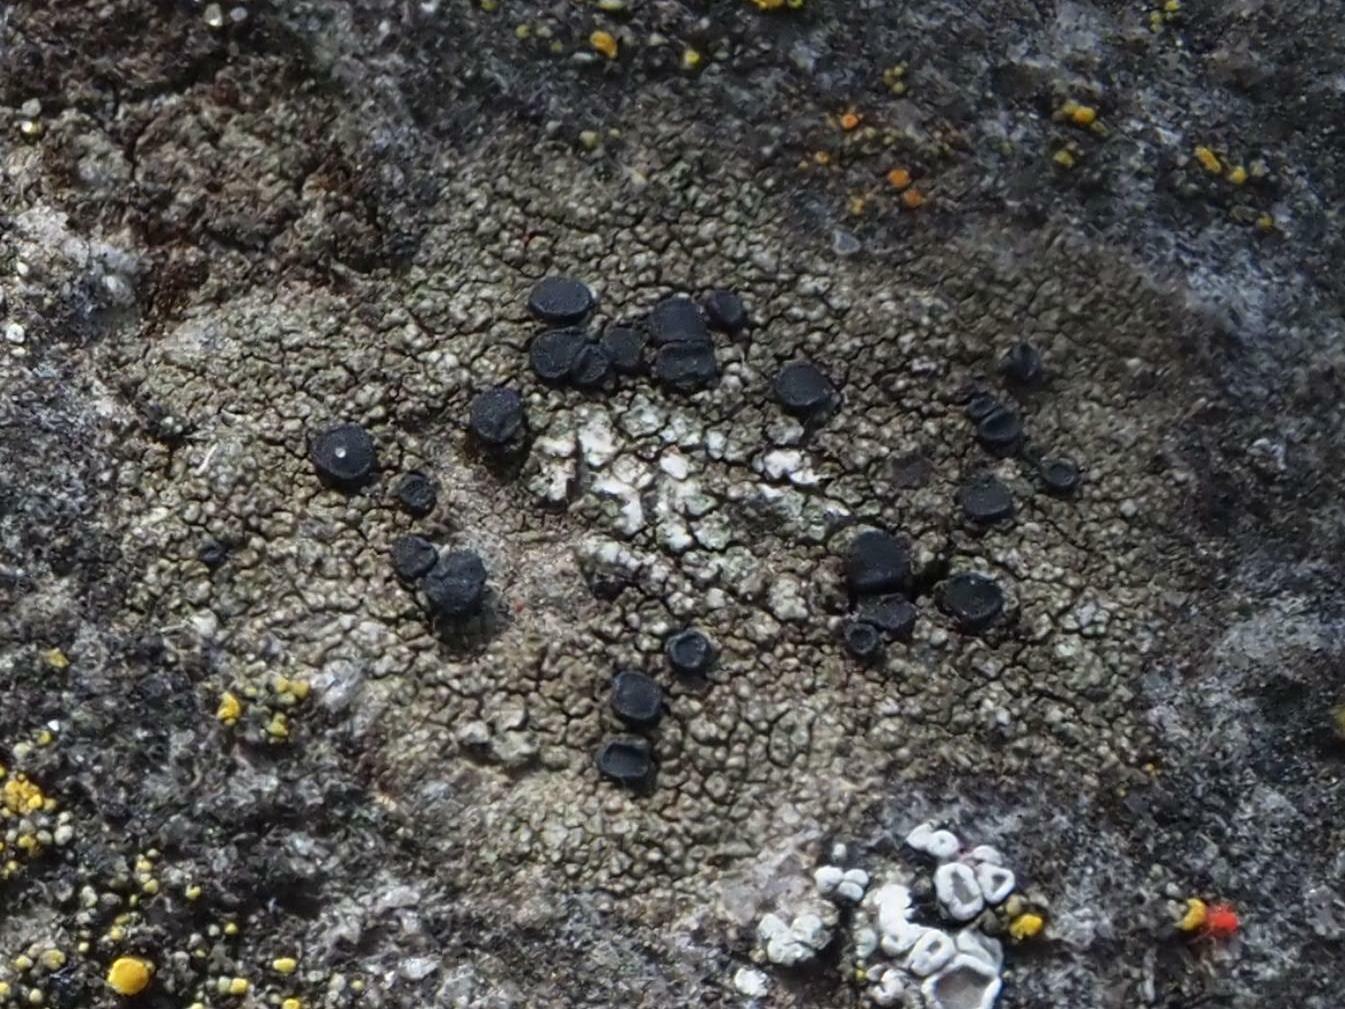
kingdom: Fungi
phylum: Ascomycota
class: Lecanoromycetes
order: Lecanorales
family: Lecanoraceae
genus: Lecidella
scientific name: Lecidella stigmatea
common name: Limestone disc lichen
